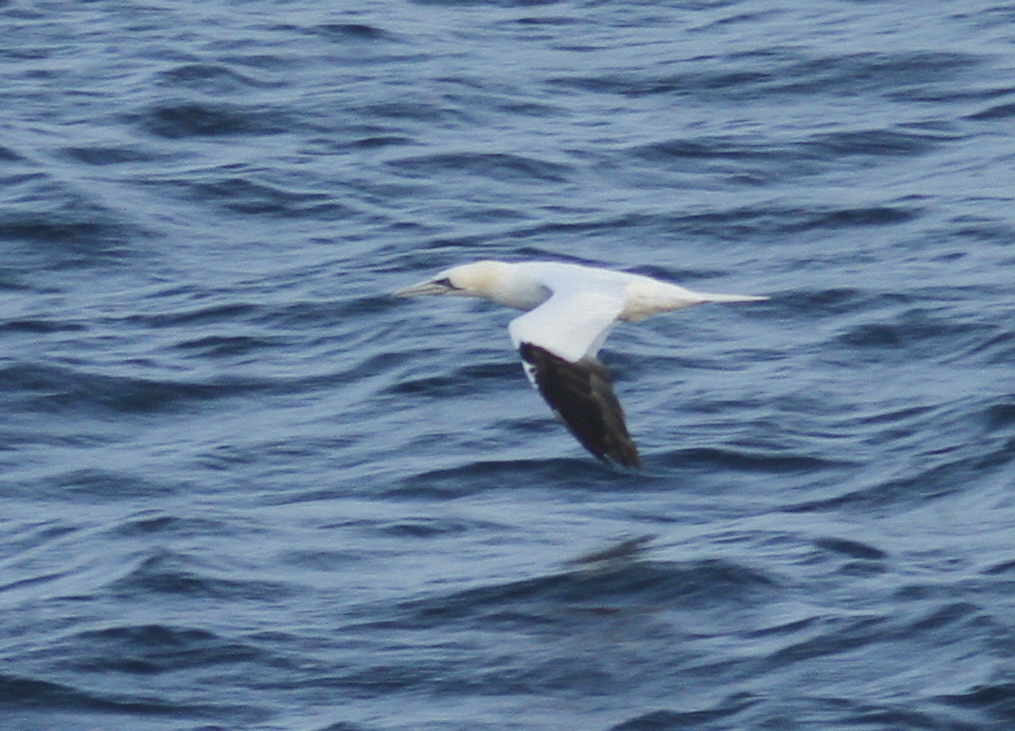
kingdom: Animalia
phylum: Chordata
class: Aves
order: Suliformes
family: Sulidae
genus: Morus
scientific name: Morus bassanus
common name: Northern gannet
